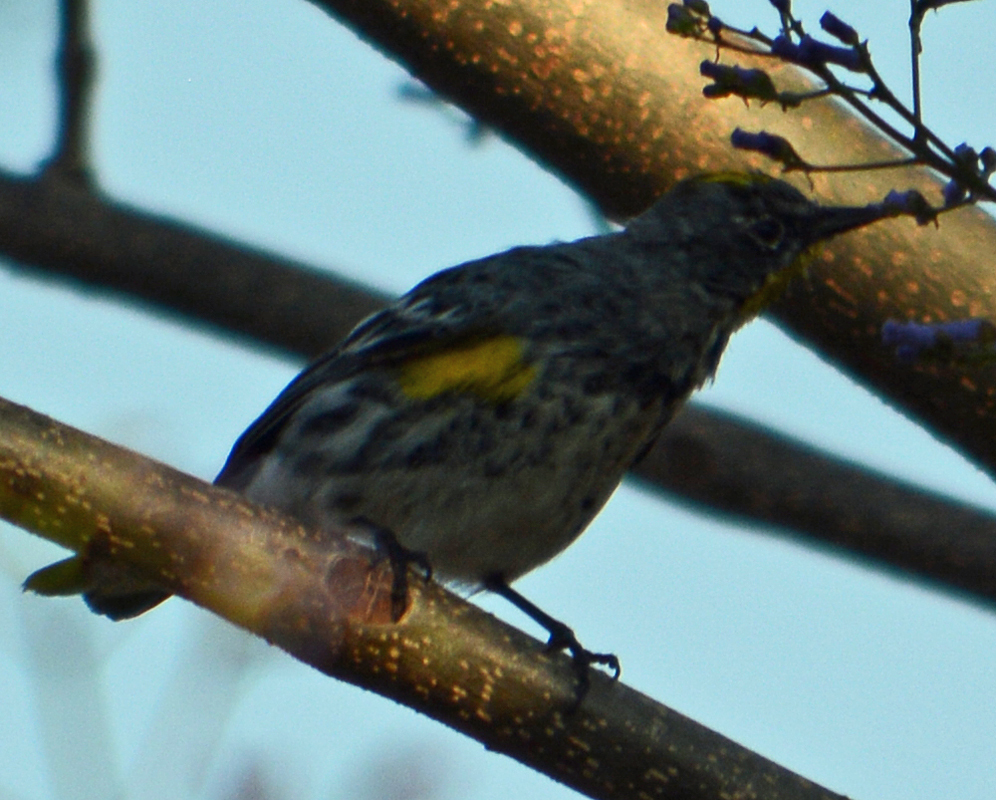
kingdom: Animalia
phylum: Chordata
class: Aves
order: Passeriformes
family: Parulidae
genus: Setophaga
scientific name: Setophaga coronata
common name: Myrtle warbler
